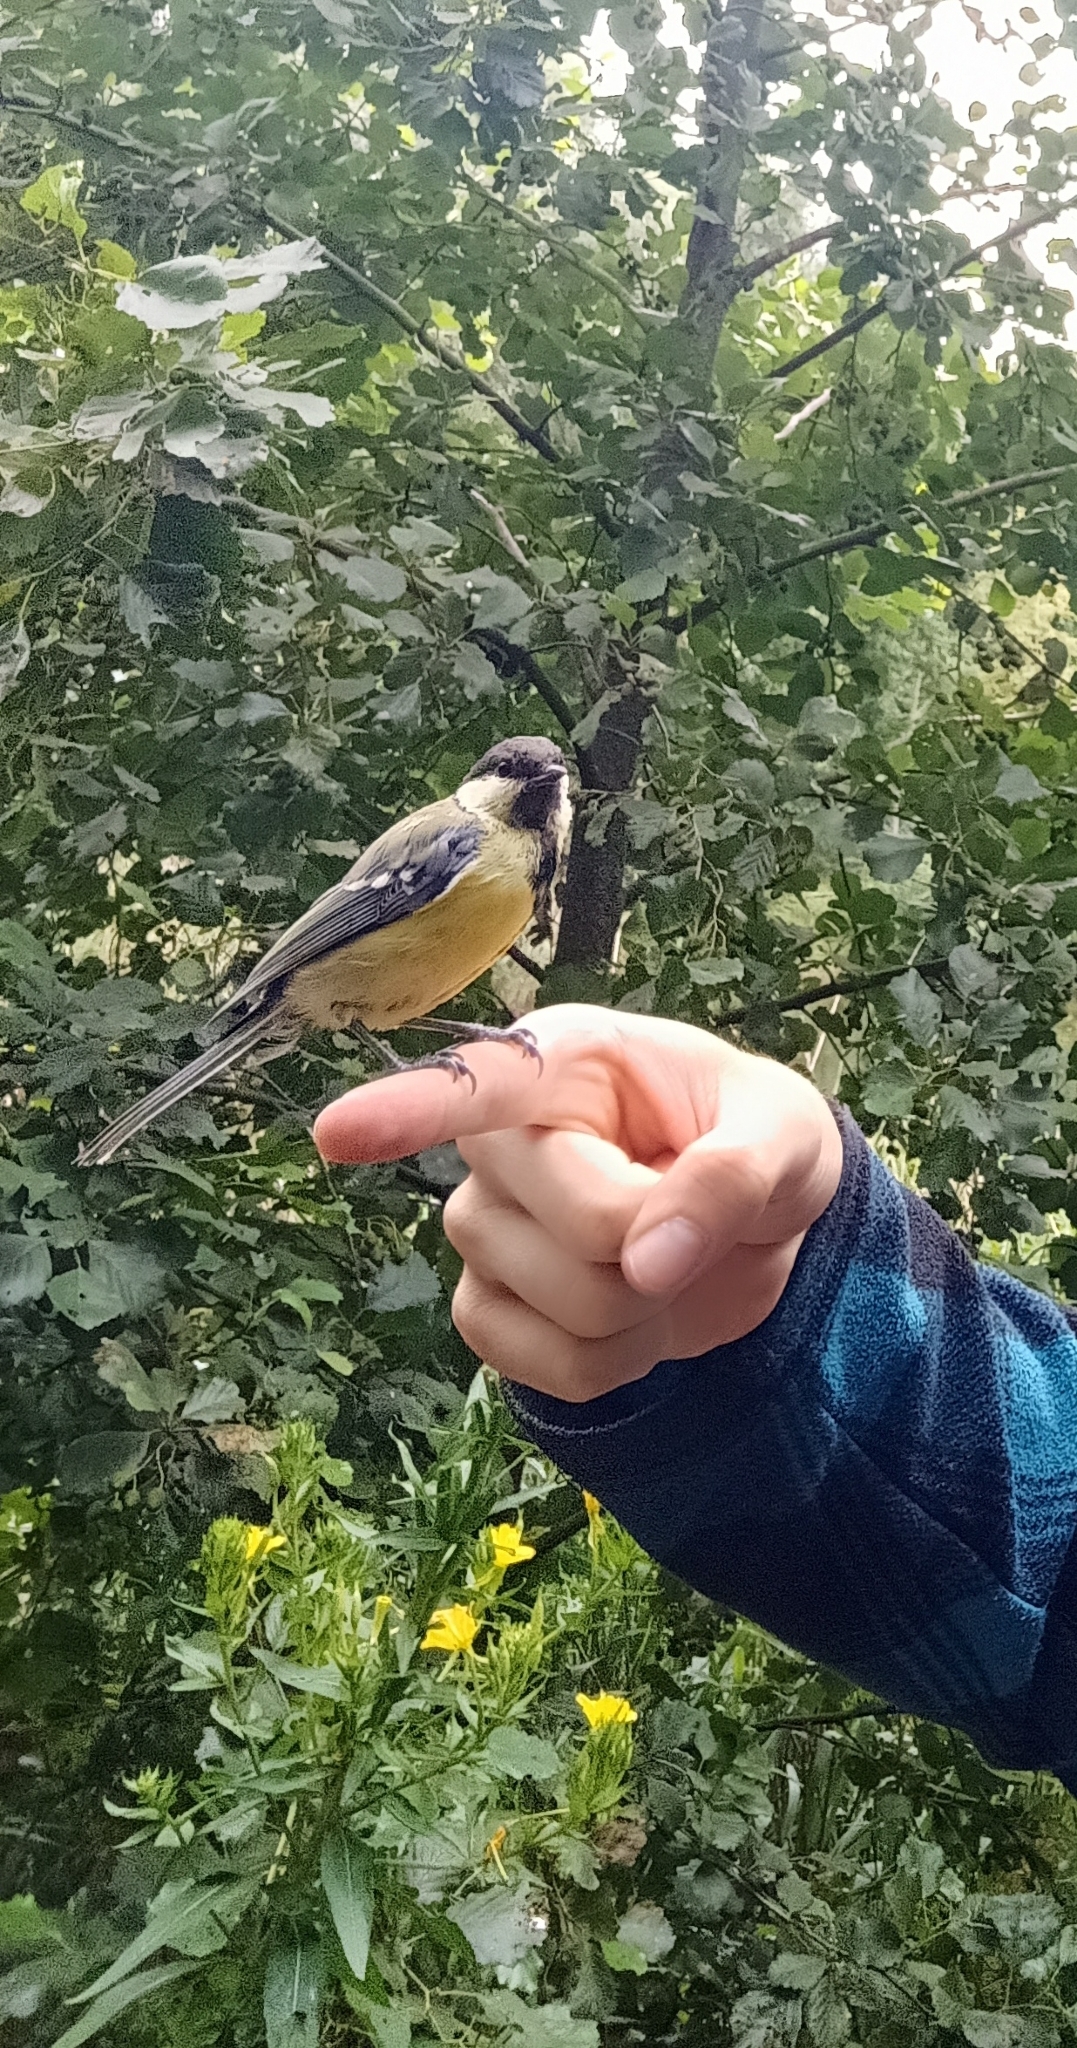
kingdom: Animalia
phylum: Chordata
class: Aves
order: Passeriformes
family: Paridae
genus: Parus
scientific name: Parus major
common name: Great tit
